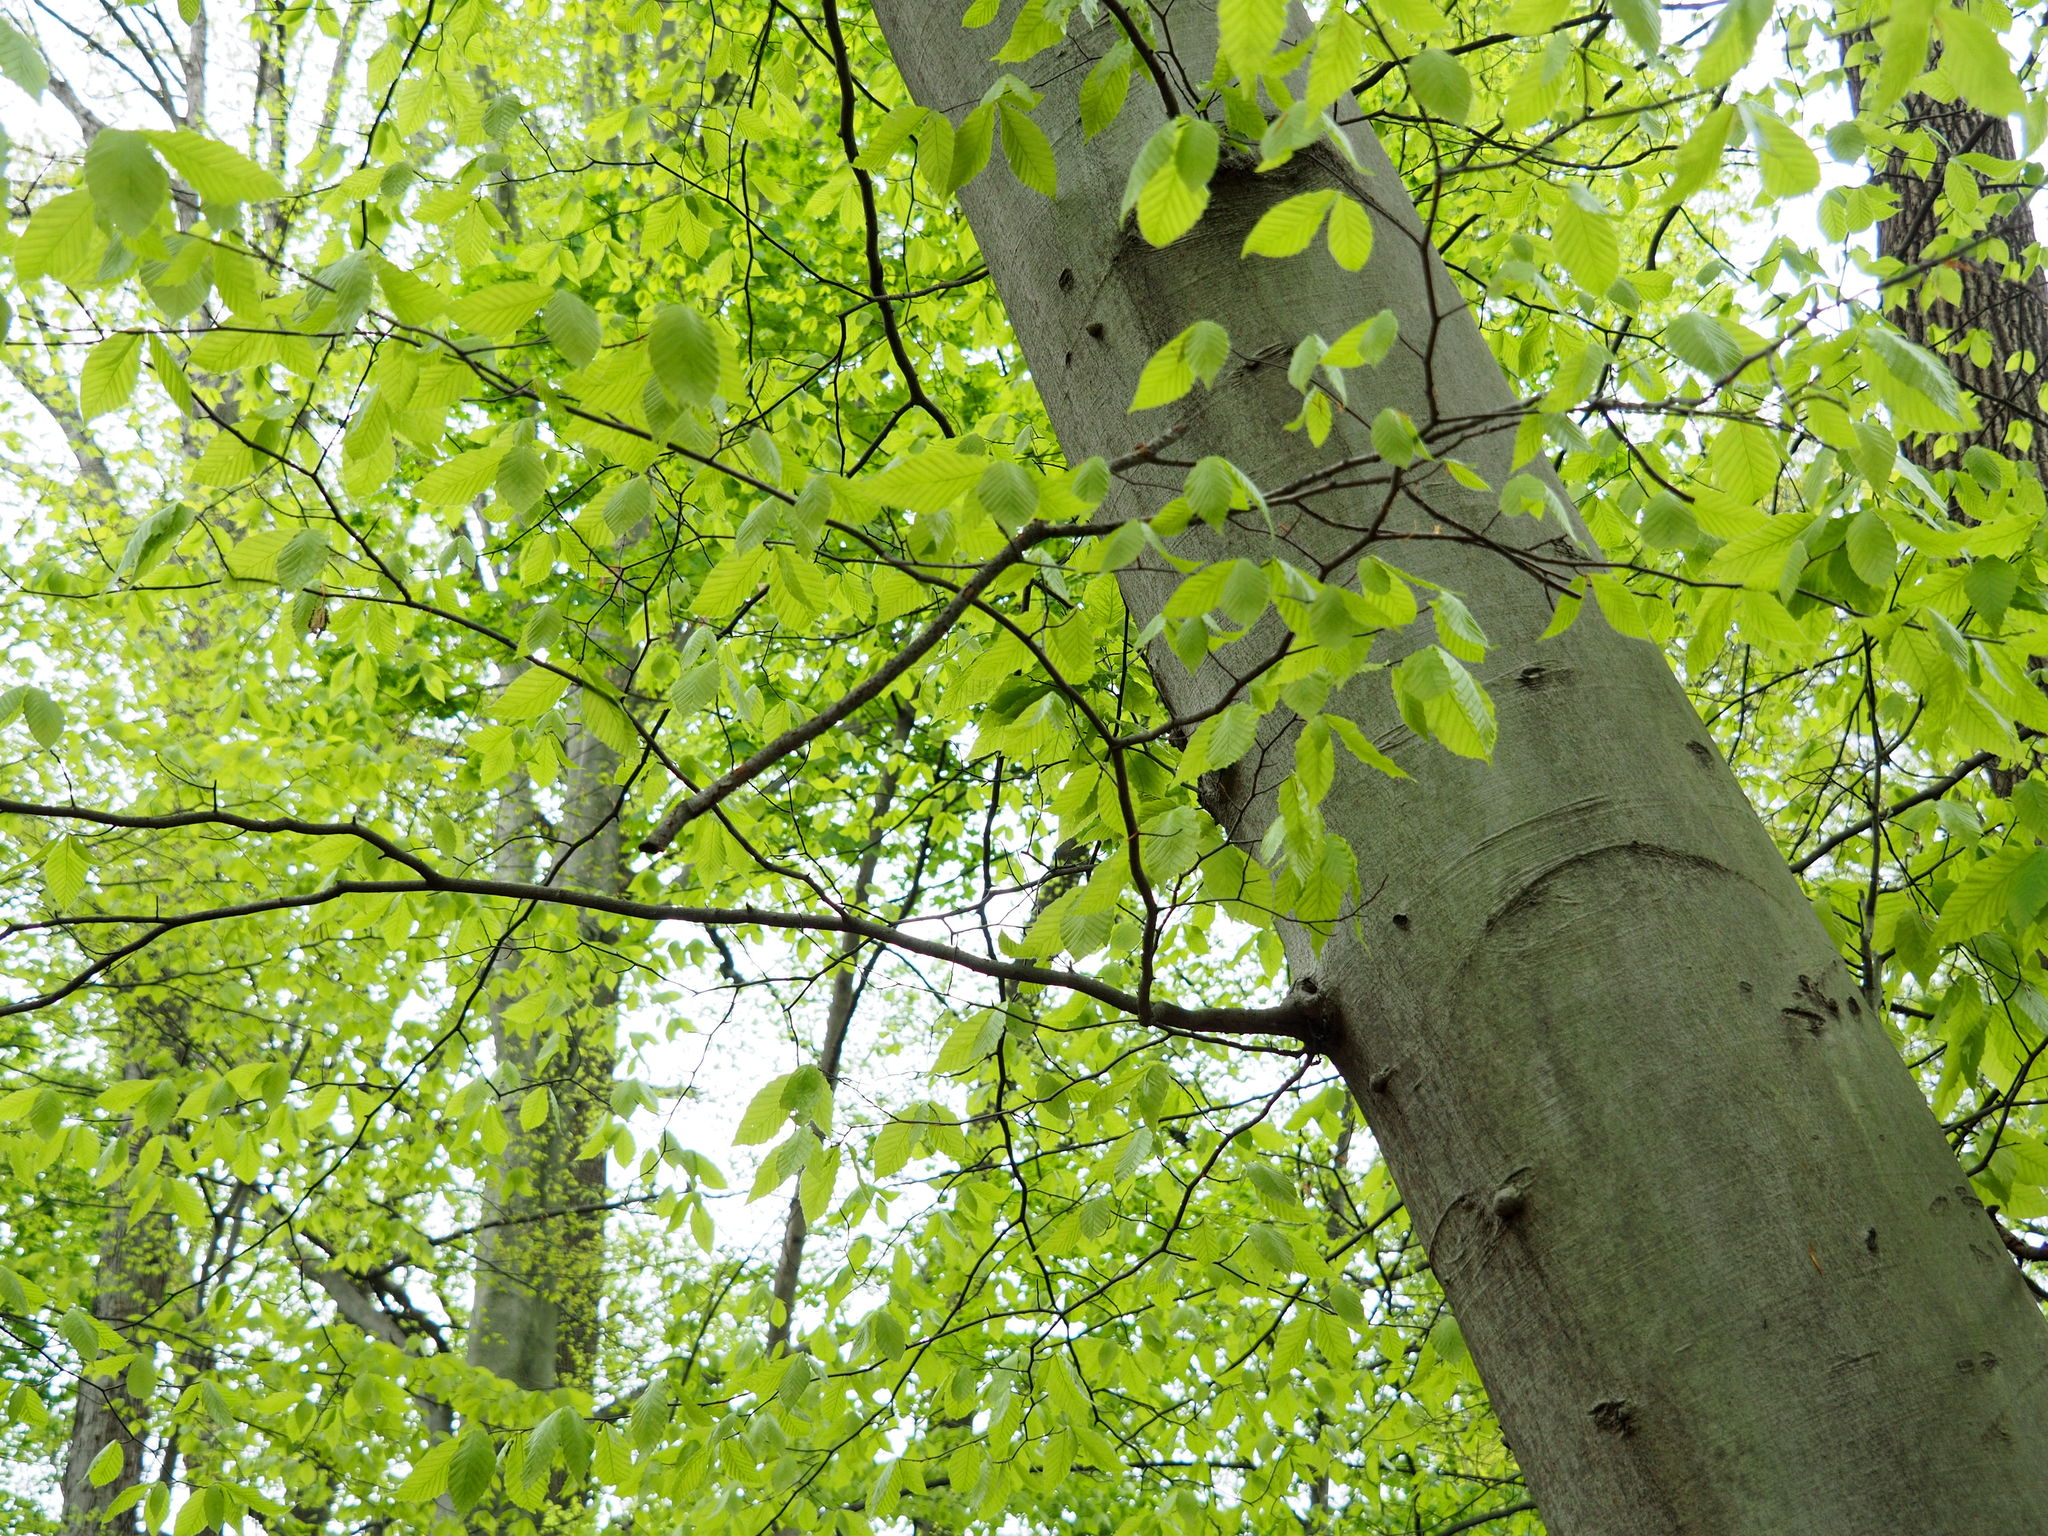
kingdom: Plantae
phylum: Tracheophyta
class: Magnoliopsida
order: Fagales
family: Fagaceae
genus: Fagus
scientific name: Fagus grandifolia
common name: American beech
